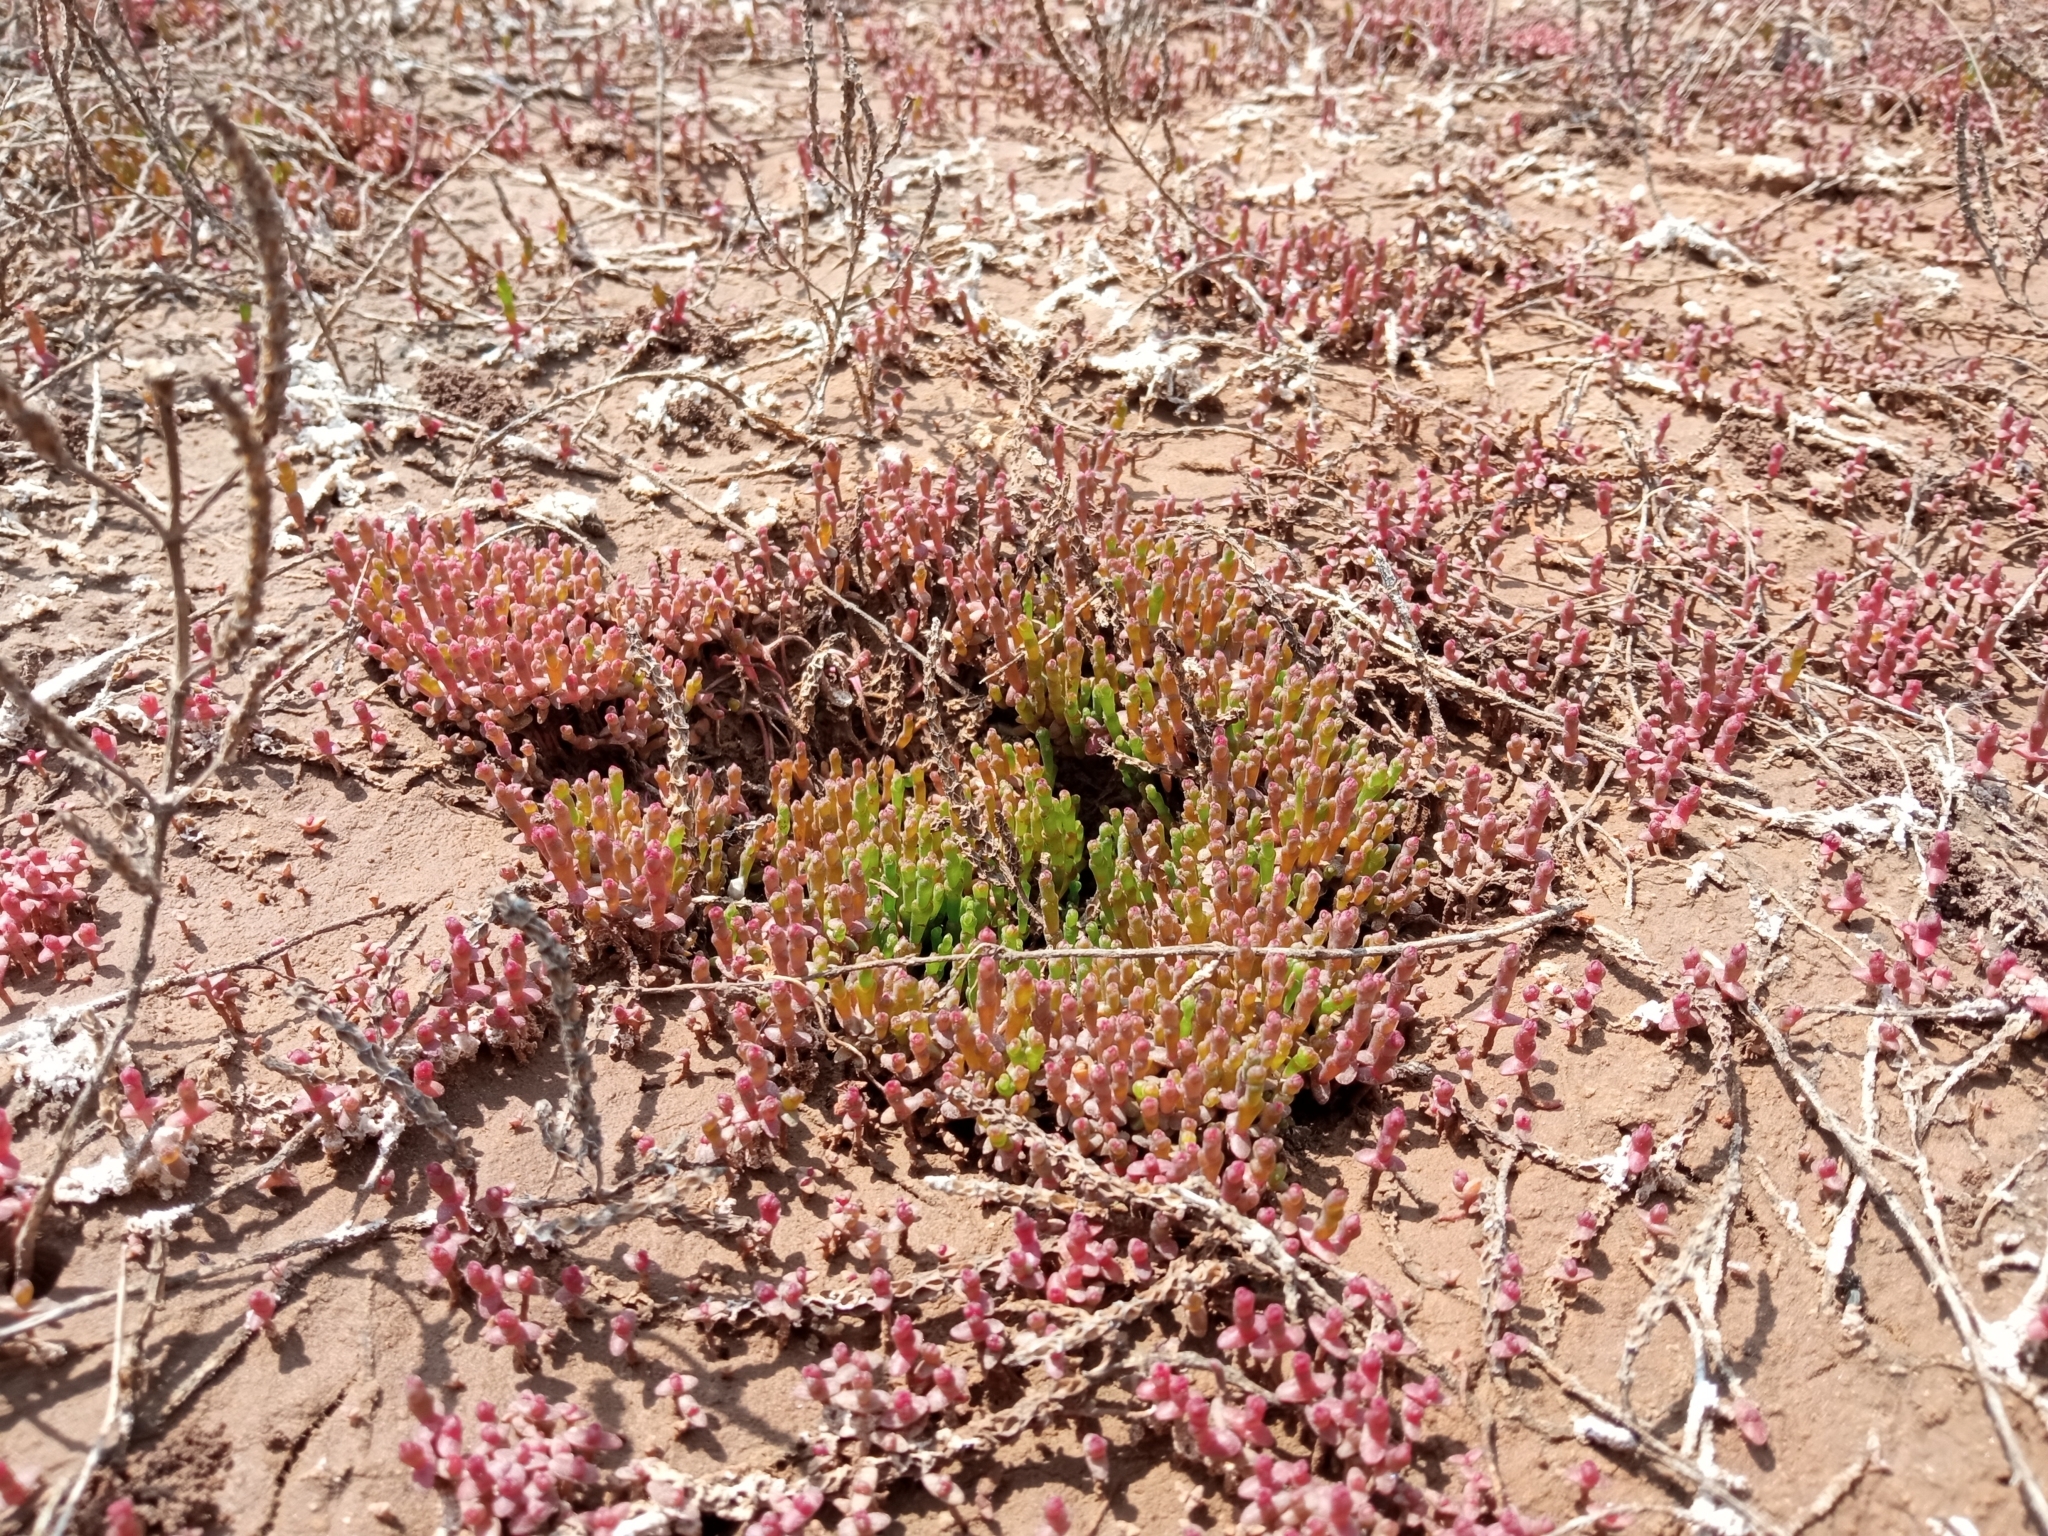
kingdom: Plantae
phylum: Tracheophyta
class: Magnoliopsida
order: Caryophyllales
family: Amaranthaceae
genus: Salicornia
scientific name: Salicornia perennans
